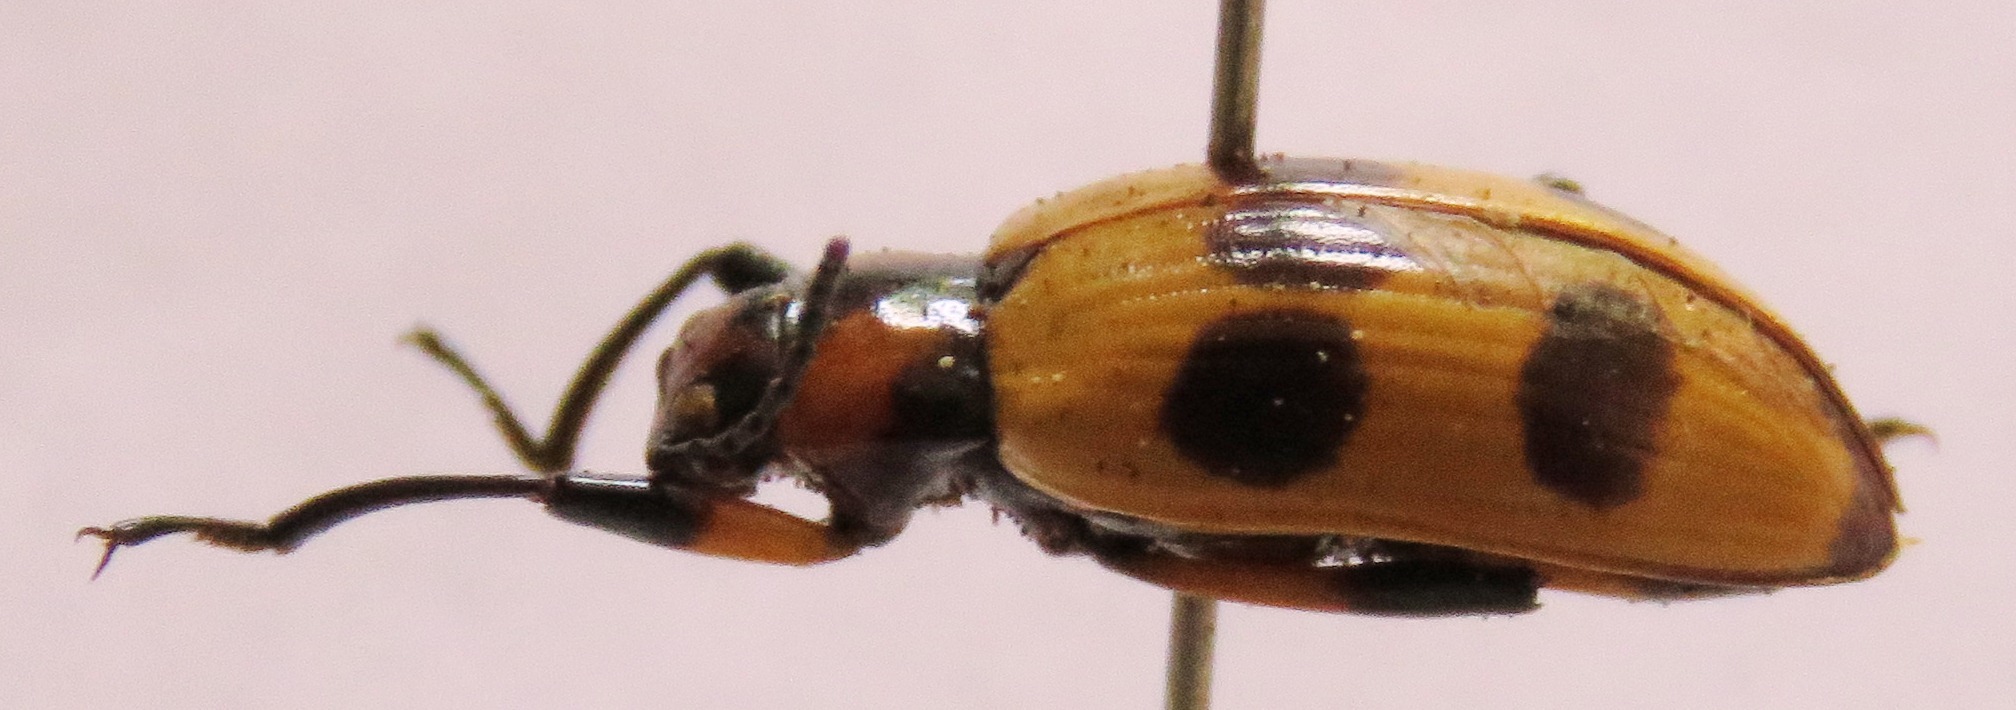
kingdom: Animalia
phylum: Arthropoda
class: Insecta
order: Coleoptera
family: Tenebrionidae
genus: Strongylium
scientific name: Strongylium maculicolle
